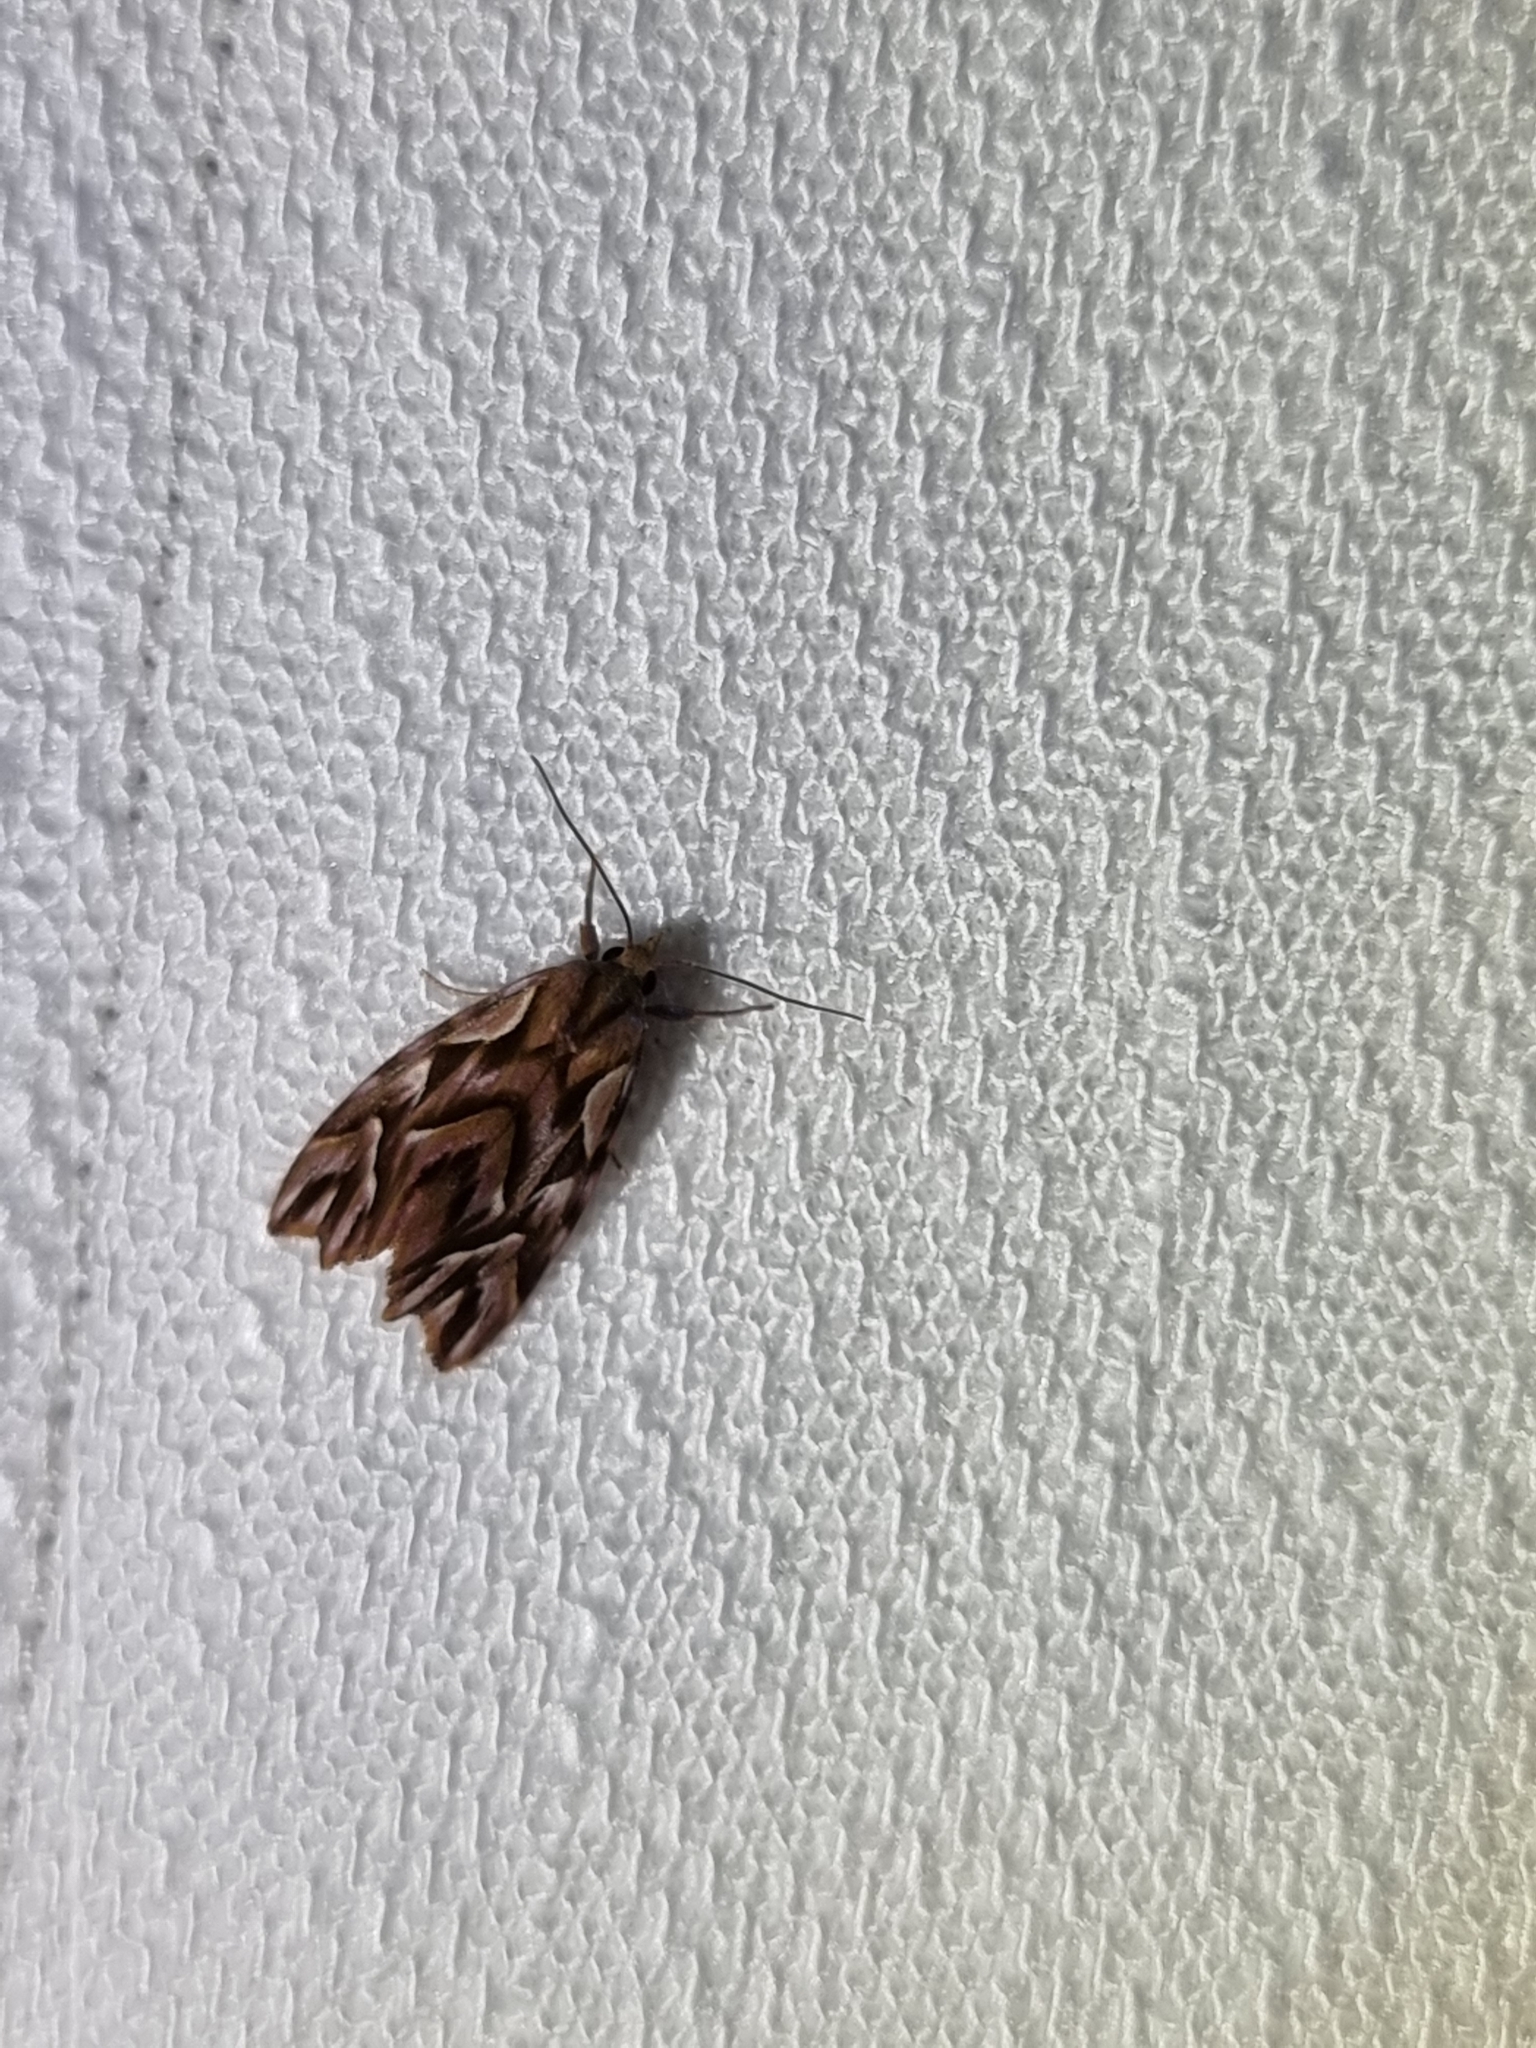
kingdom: Animalia
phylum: Arthropoda
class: Insecta
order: Lepidoptera
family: Noctuidae
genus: Clytoscopa
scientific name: Clytoscopa iorrhoda
